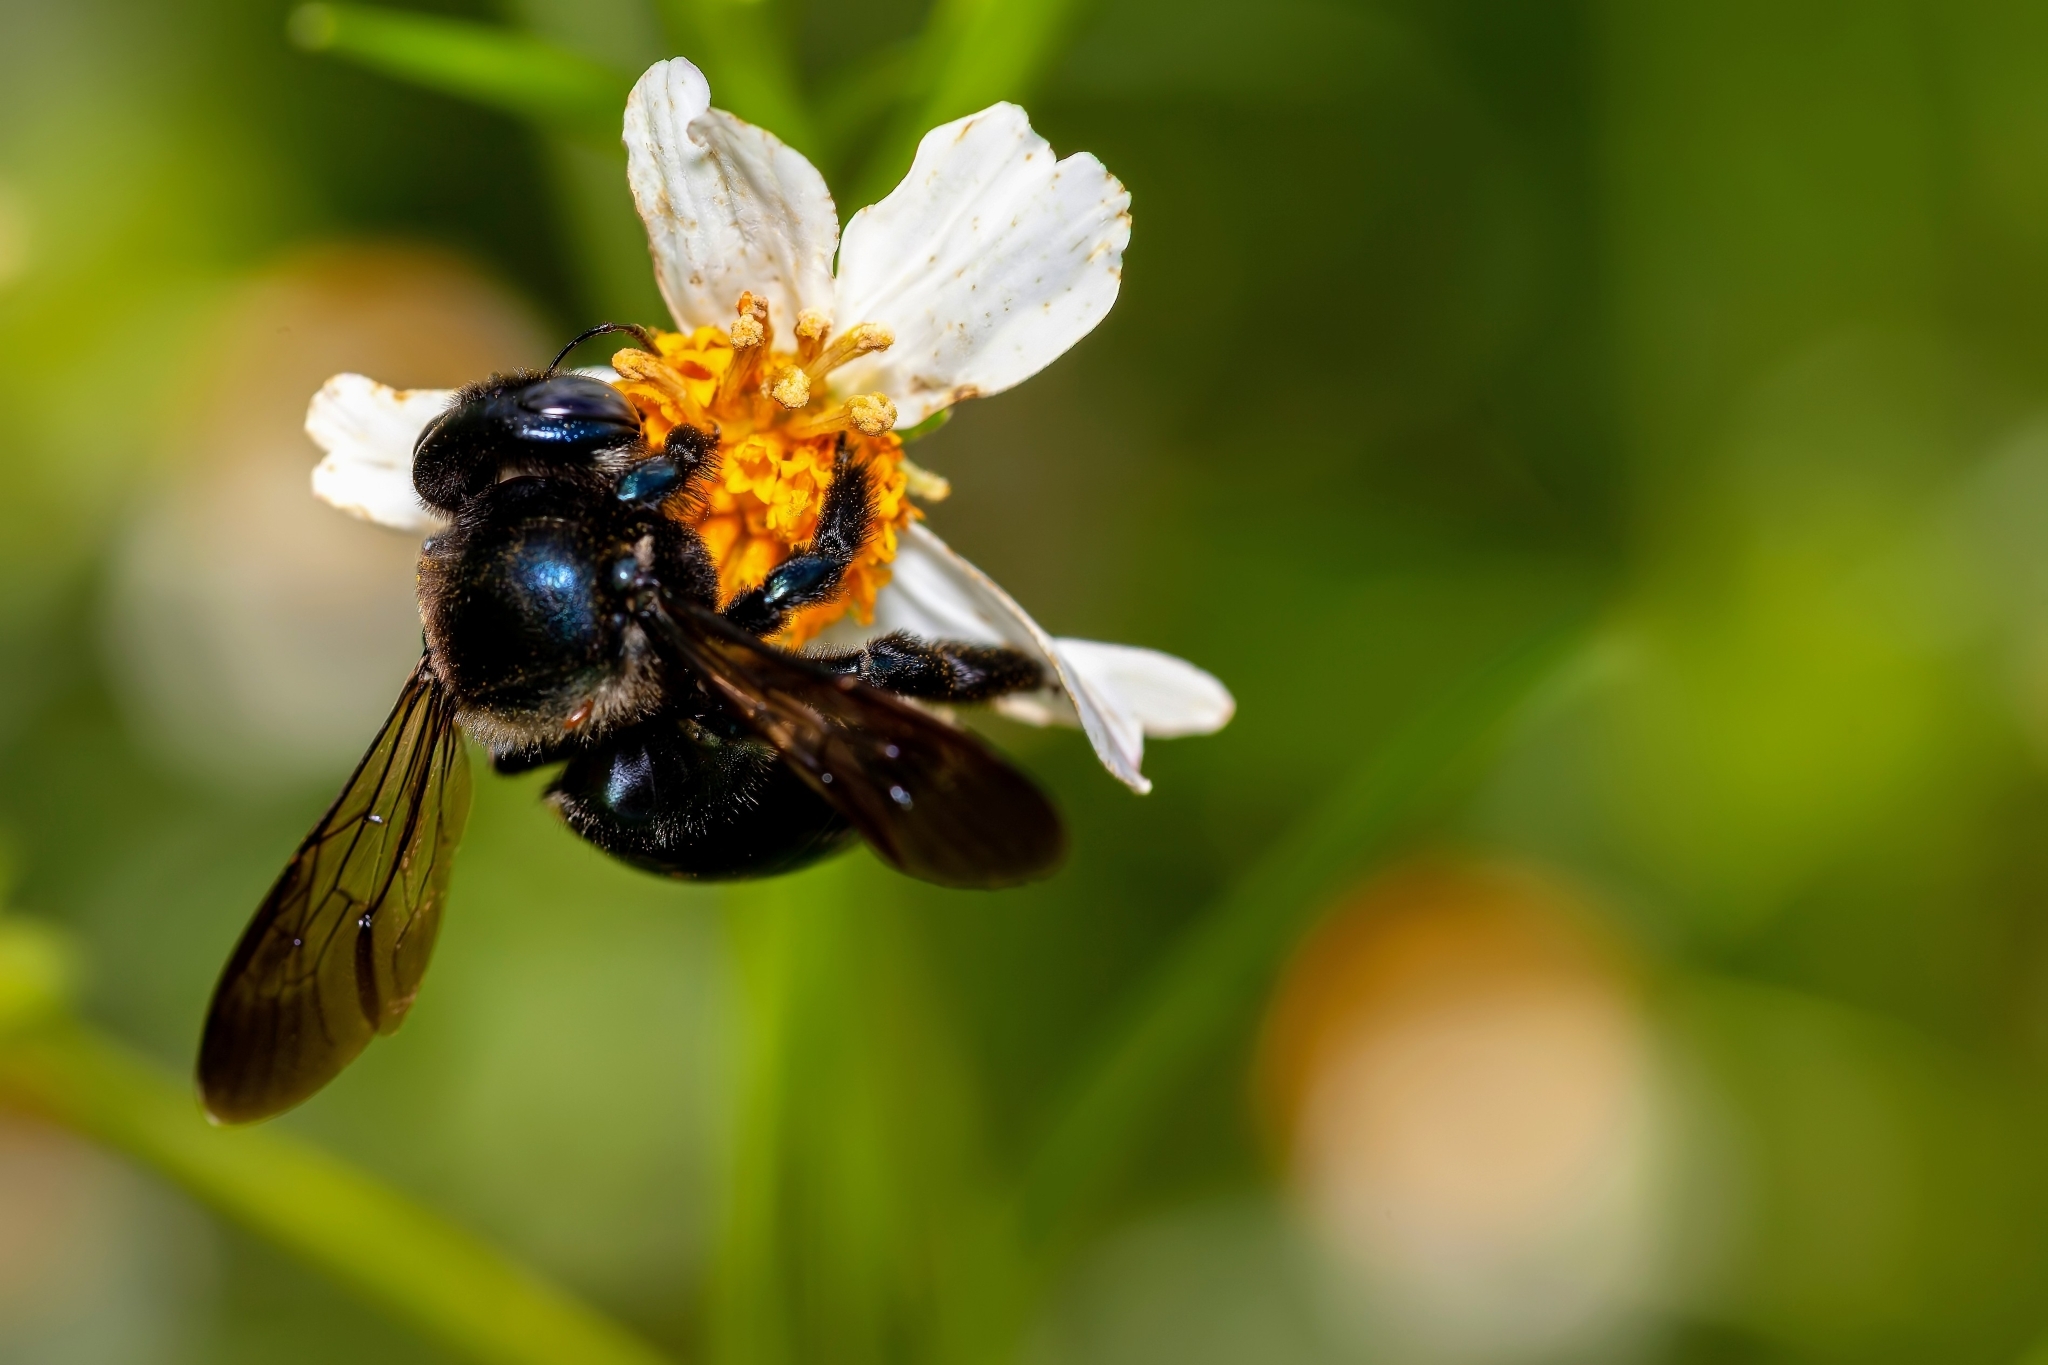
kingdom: Animalia
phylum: Arthropoda
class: Insecta
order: Hymenoptera
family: Apidae
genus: Xylocopa
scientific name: Xylocopa micans
